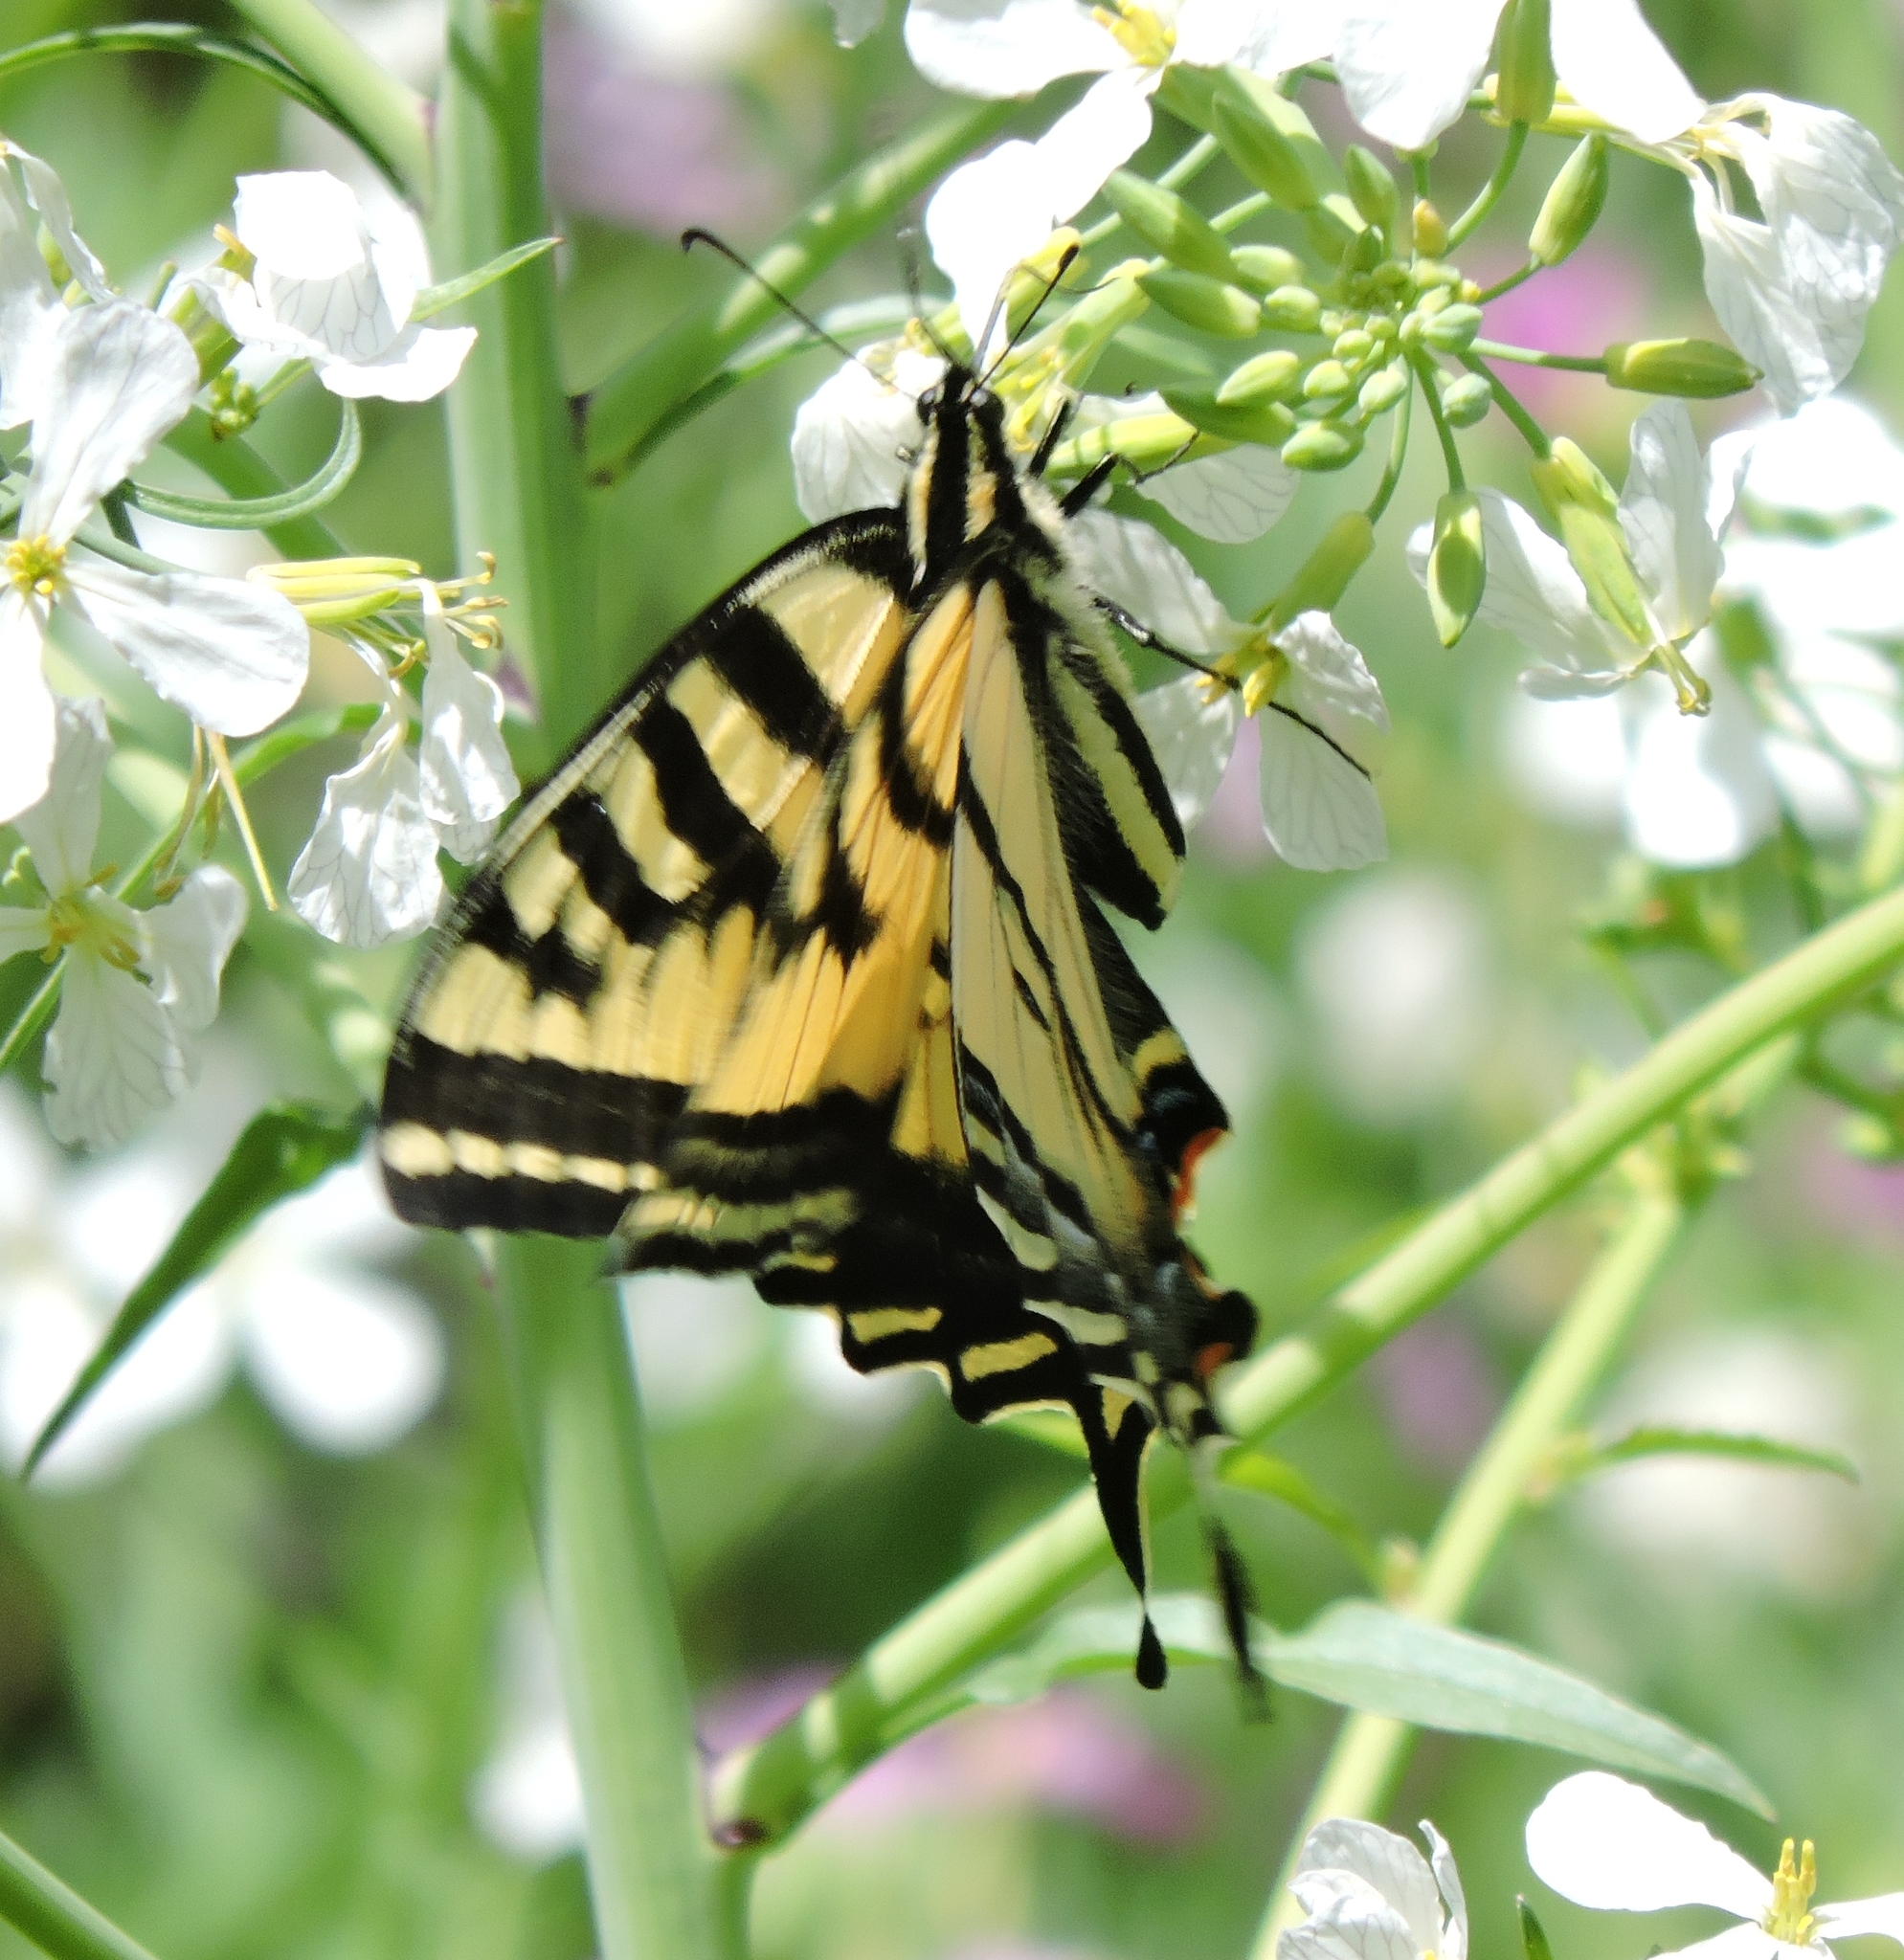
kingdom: Animalia
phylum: Arthropoda
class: Insecta
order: Lepidoptera
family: Papilionidae
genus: Papilio
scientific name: Papilio rutulus
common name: Western tiger swallowtail
